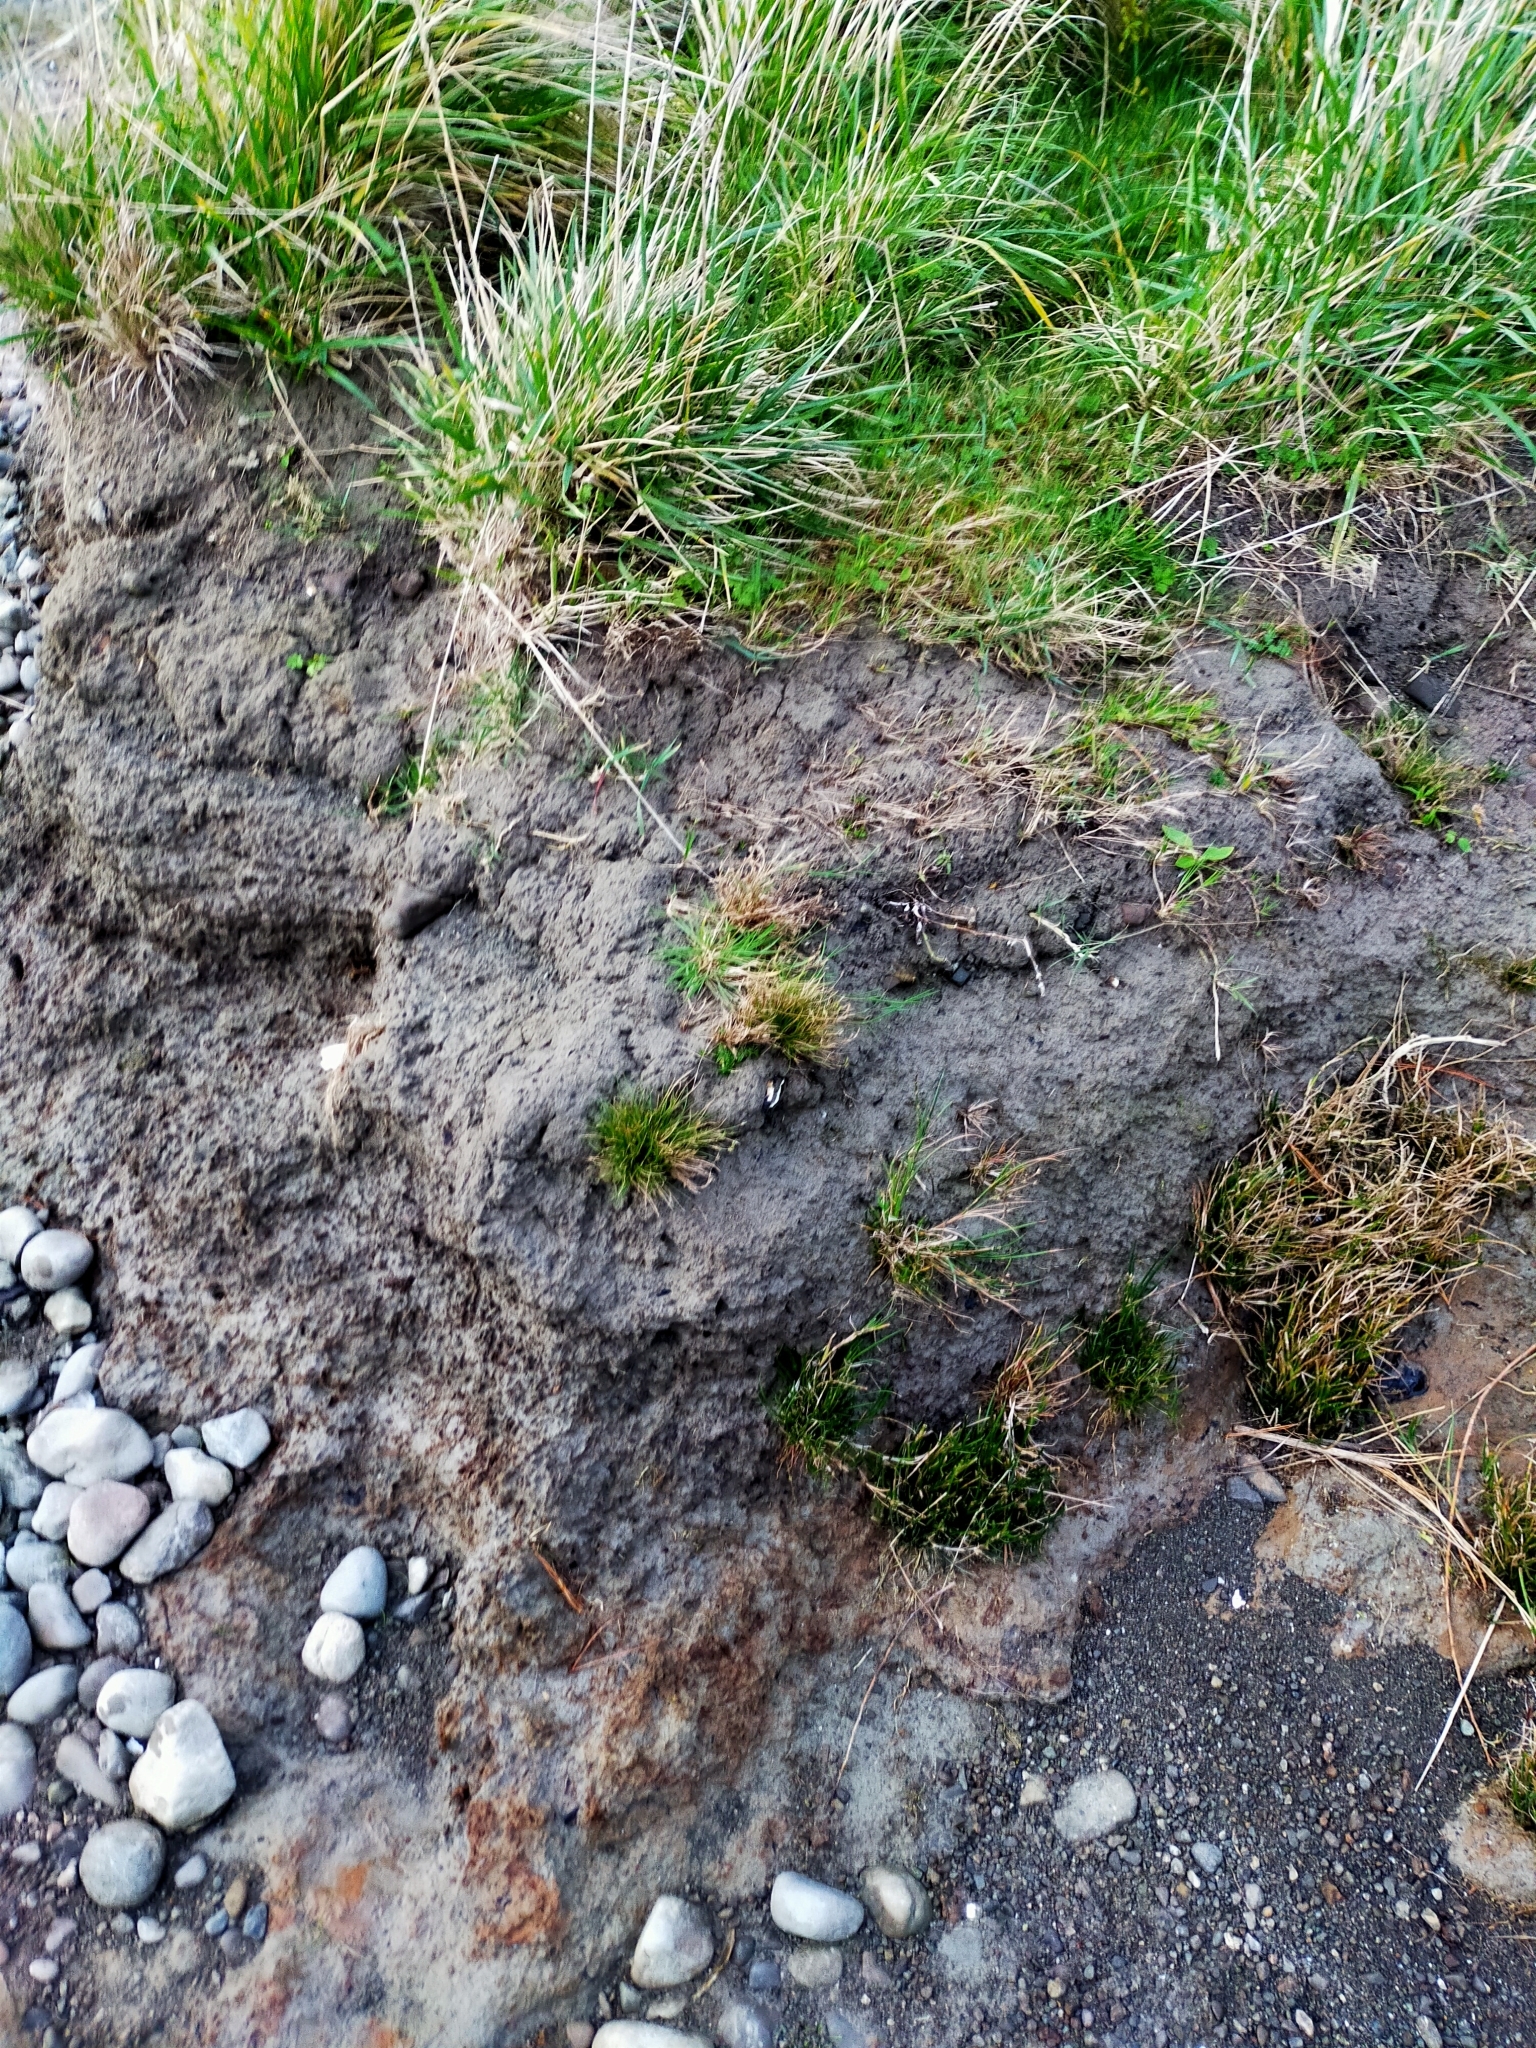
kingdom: Plantae
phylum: Tracheophyta
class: Liliopsida
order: Poales
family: Juncaceae
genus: Juncus
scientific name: Juncus bufonius
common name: Toad rush
